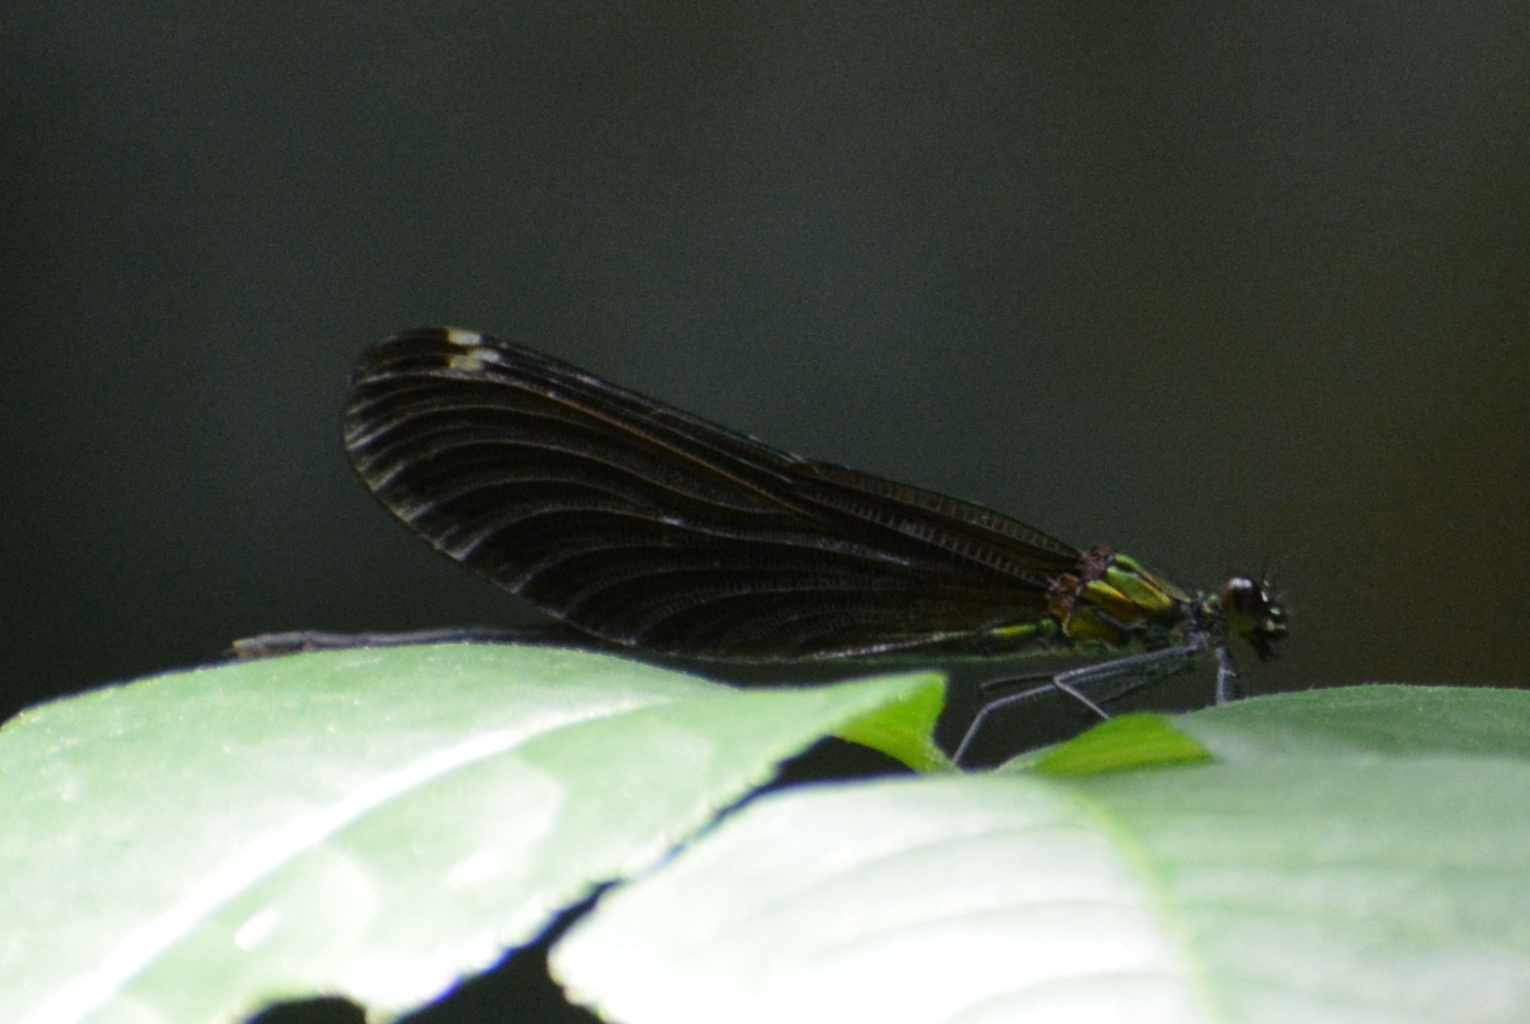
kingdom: Animalia
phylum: Arthropoda
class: Insecta
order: Odonata
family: Calopterygidae
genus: Calopteryx
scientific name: Calopteryx virgo
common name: Beautiful demoiselle
